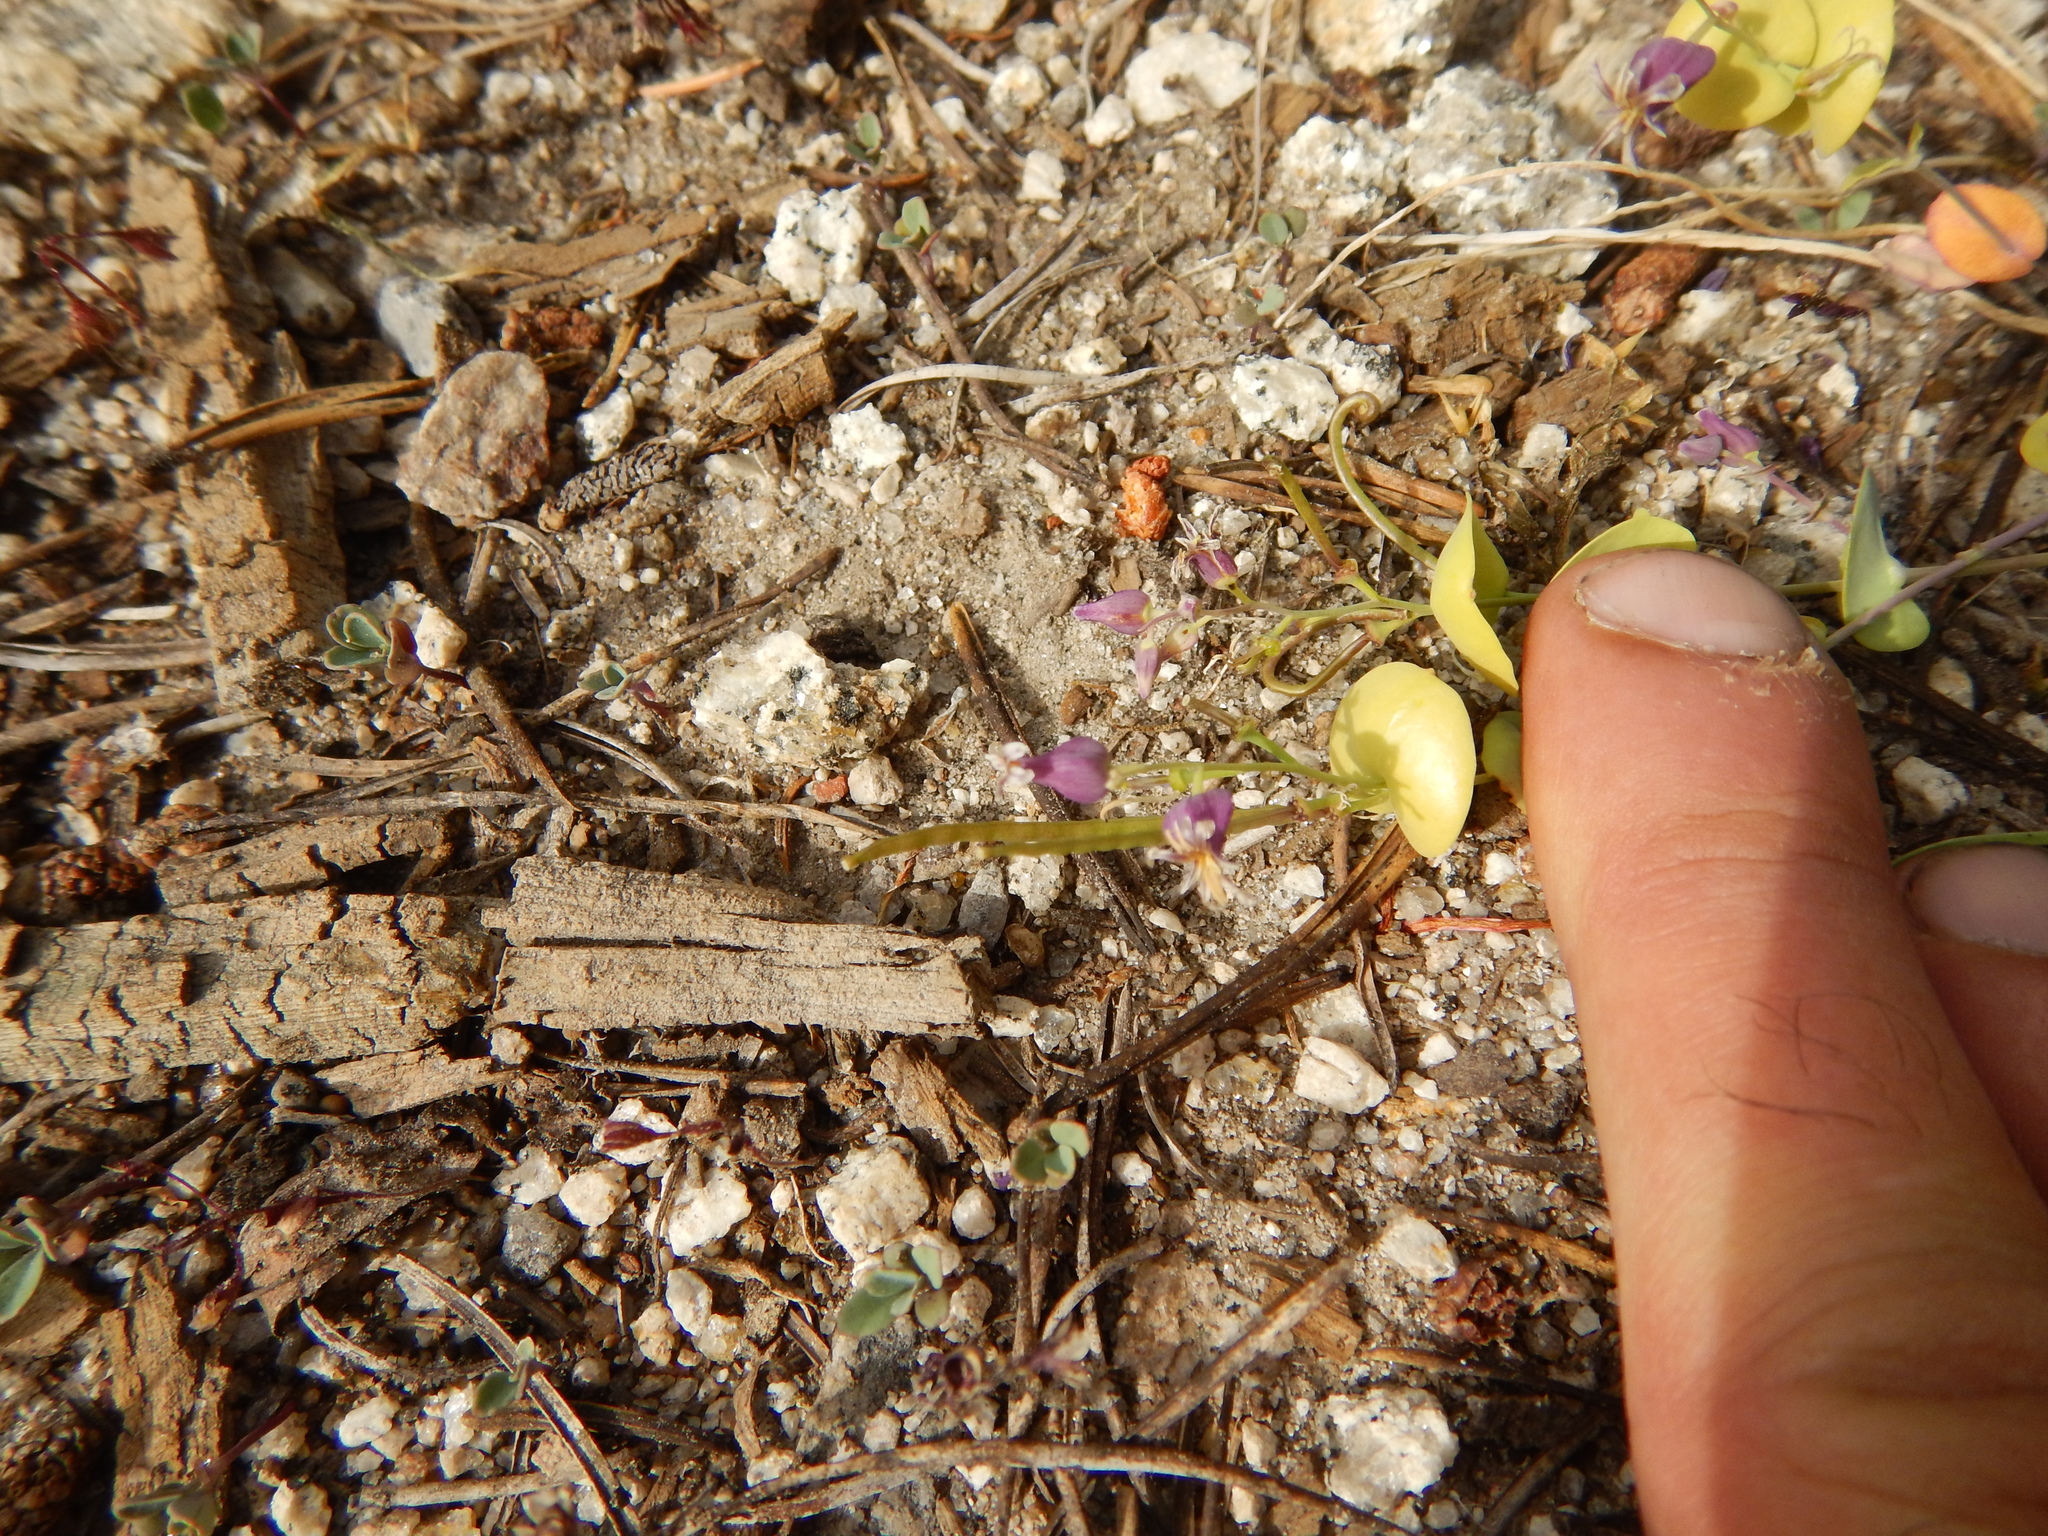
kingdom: Plantae
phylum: Tracheophyta
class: Magnoliopsida
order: Brassicales
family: Brassicaceae
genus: Streptanthus
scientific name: Streptanthus tortuosus
